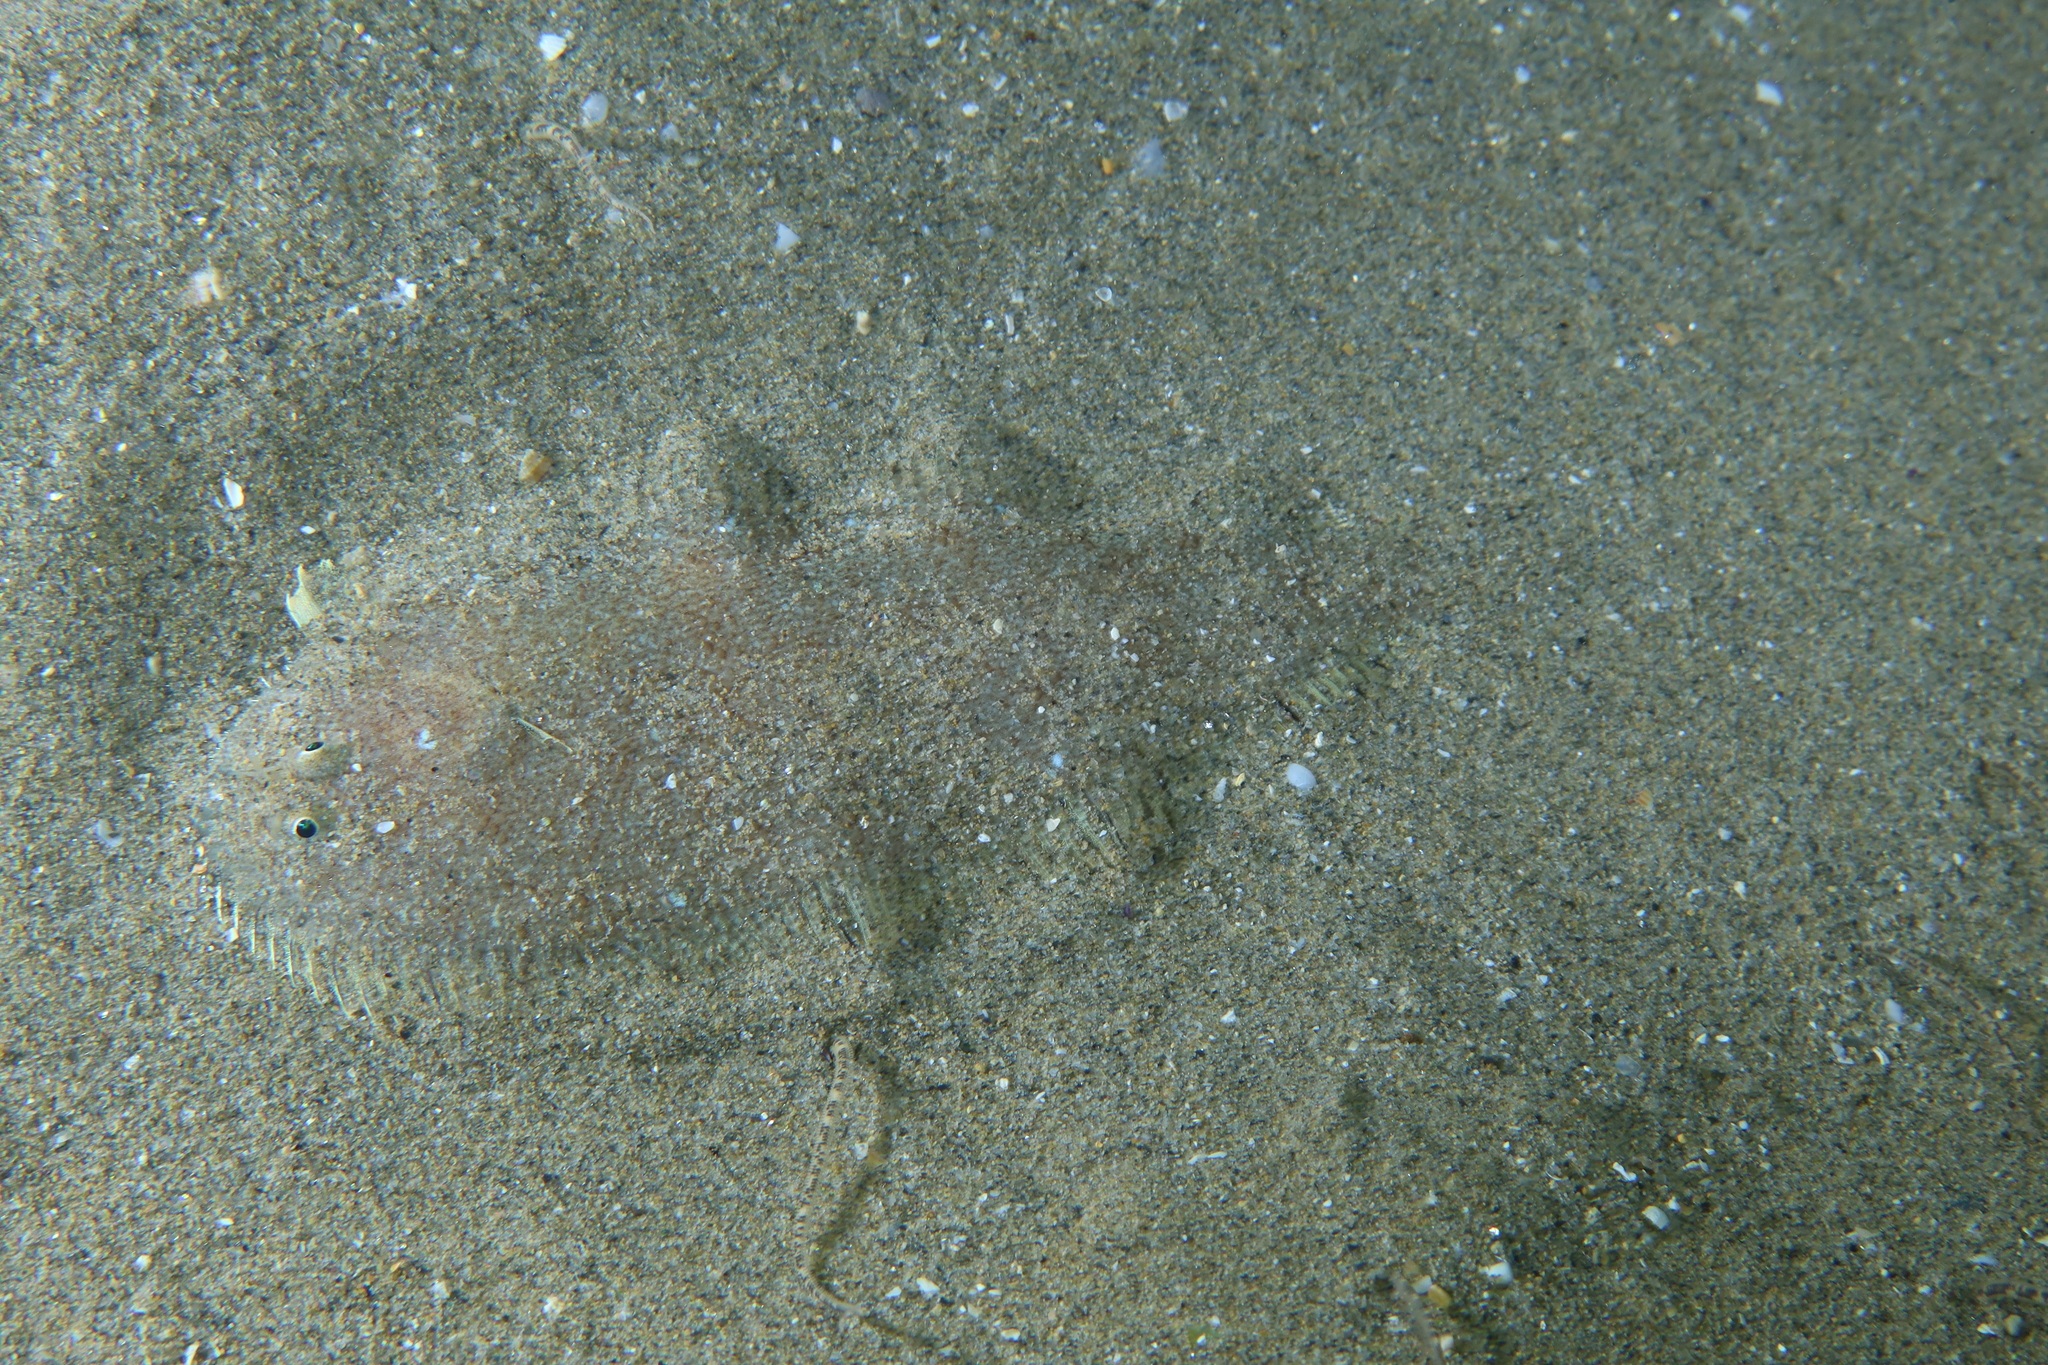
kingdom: Animalia
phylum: Chordata
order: Pleuronectiformes
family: Soleidae
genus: Buglossidium
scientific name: Buglossidium luteum
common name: Solenette
